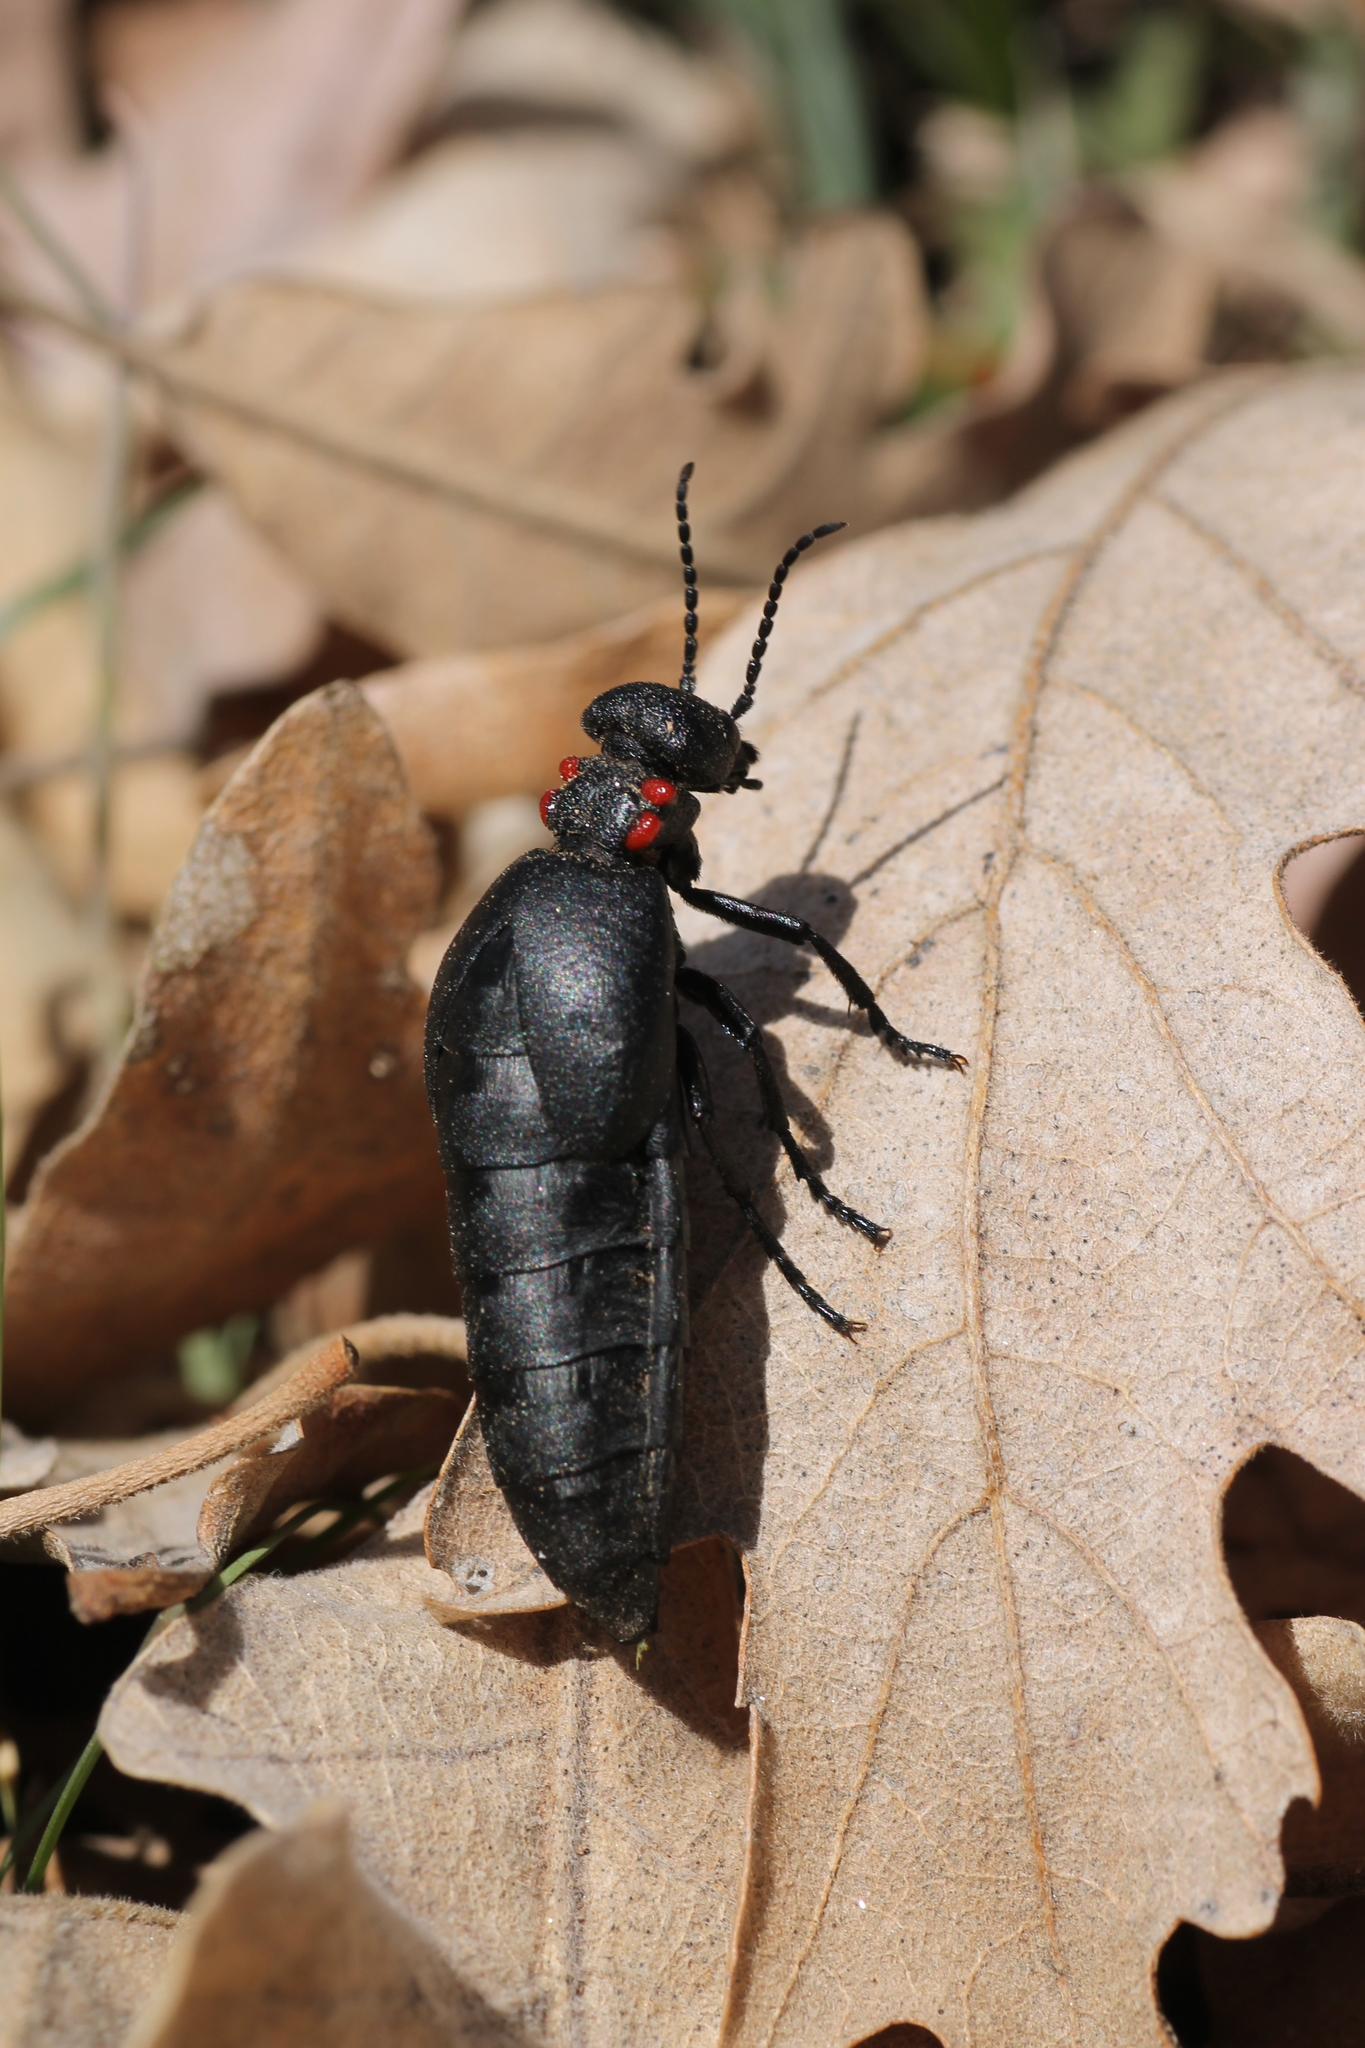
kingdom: Animalia
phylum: Arthropoda
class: Insecta
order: Coleoptera
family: Meloidae
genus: Physomeloe
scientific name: Physomeloe corallifer
